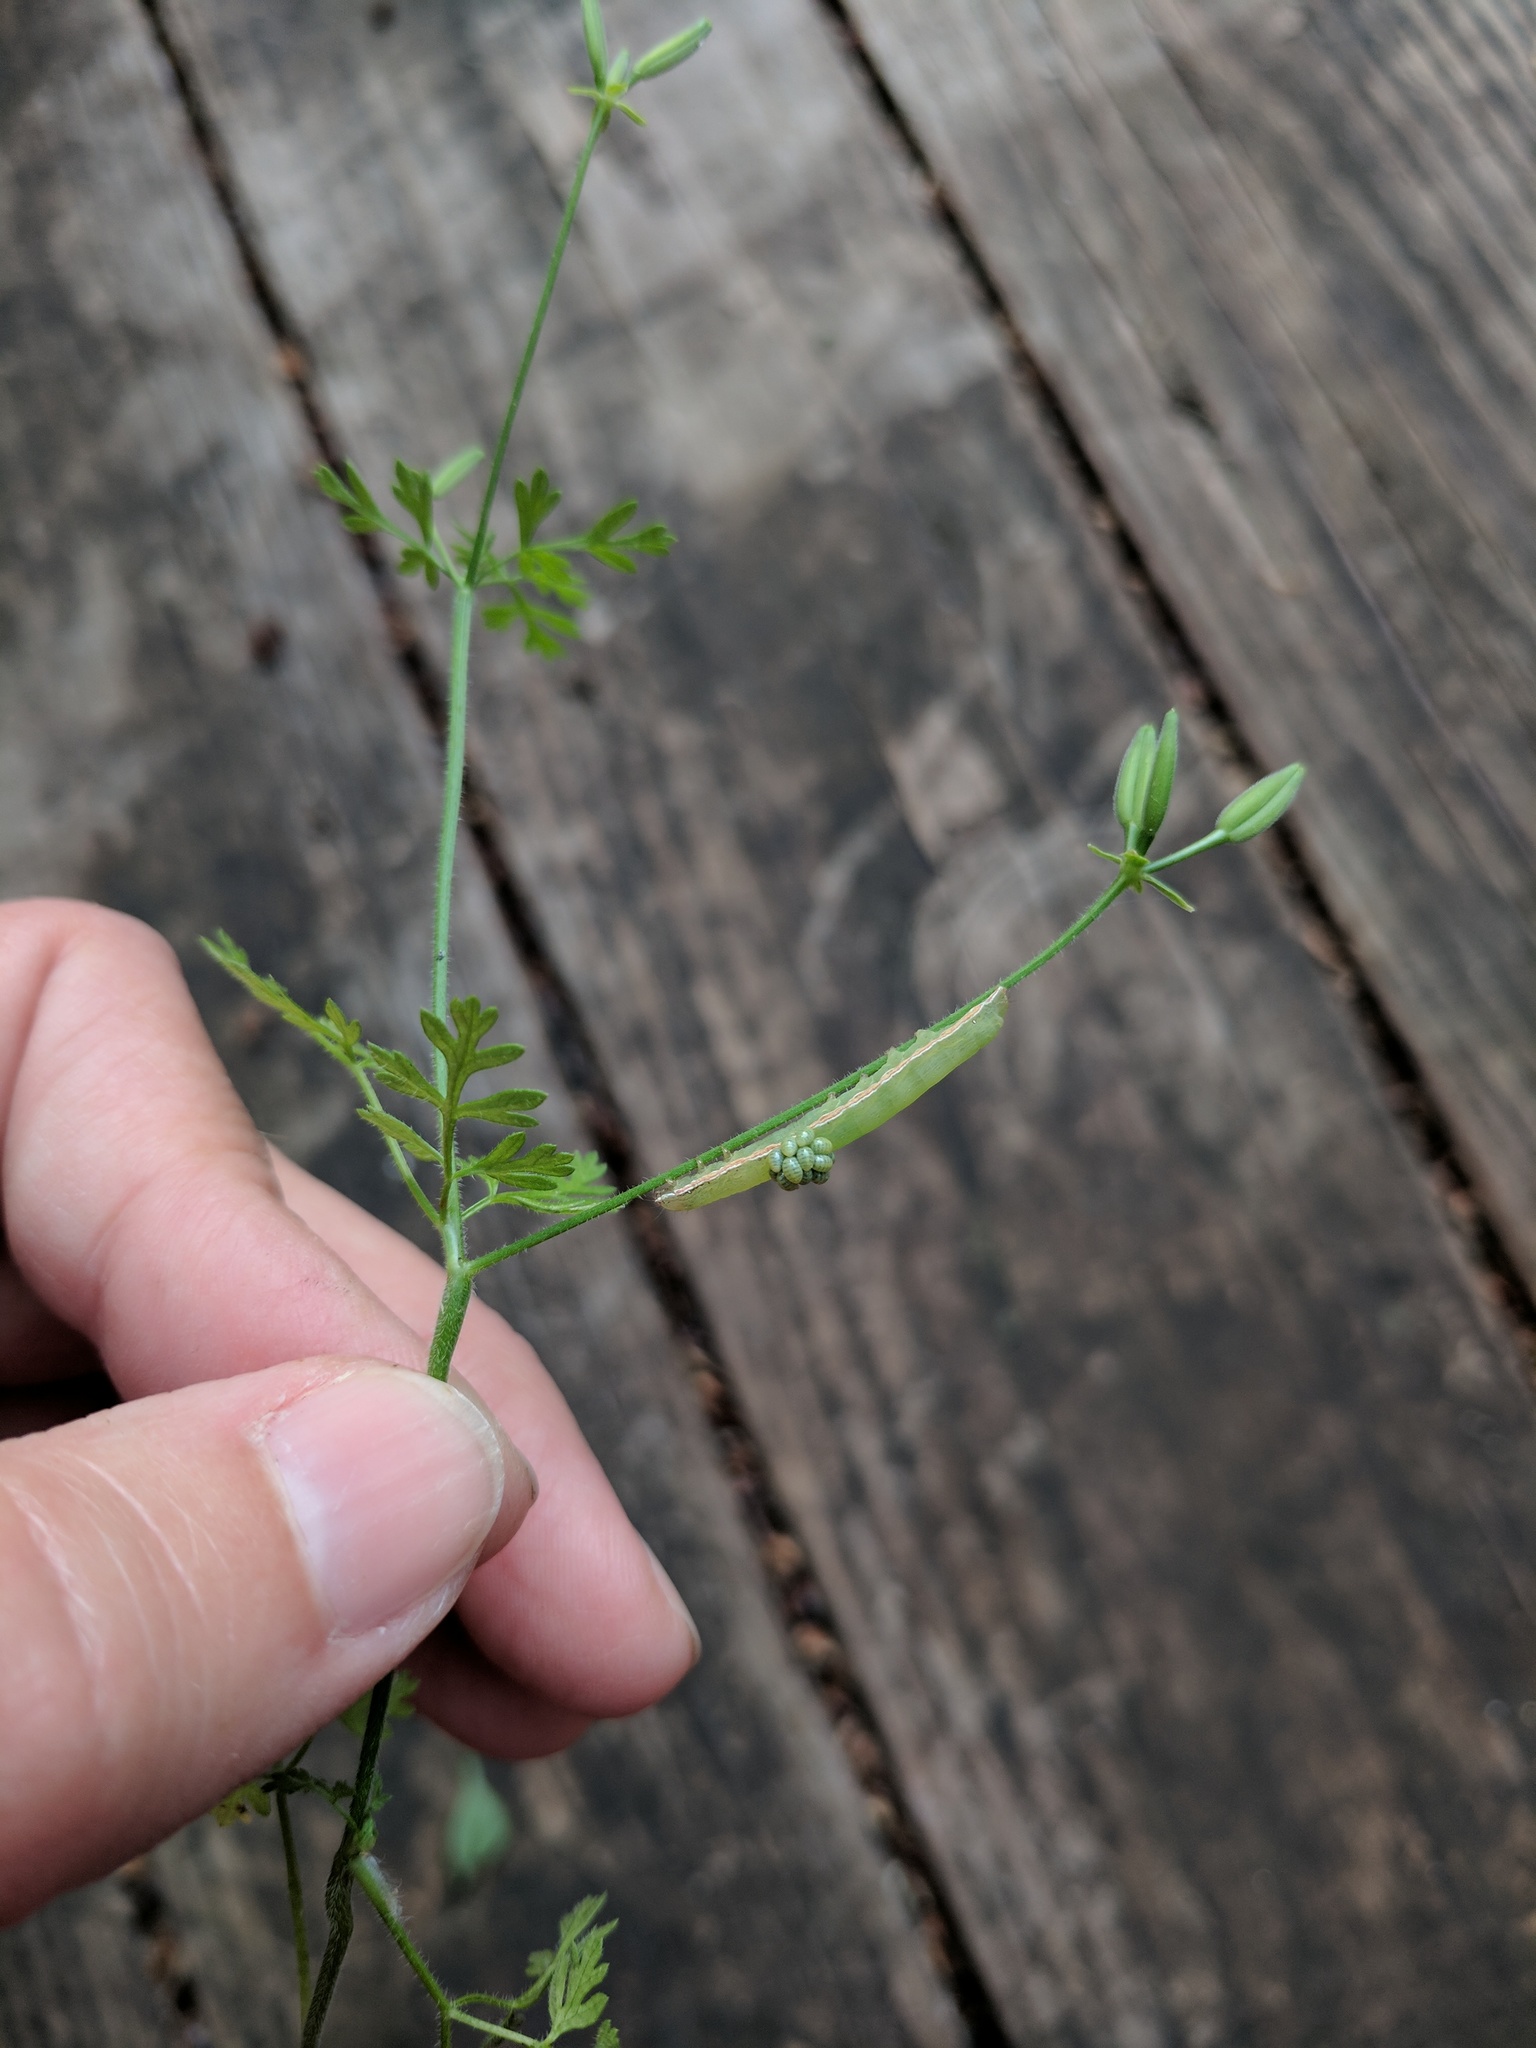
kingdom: Animalia
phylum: Arthropoda
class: Insecta
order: Hymenoptera
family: Eulophidae
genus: Euplectrus
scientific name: Euplectrus
